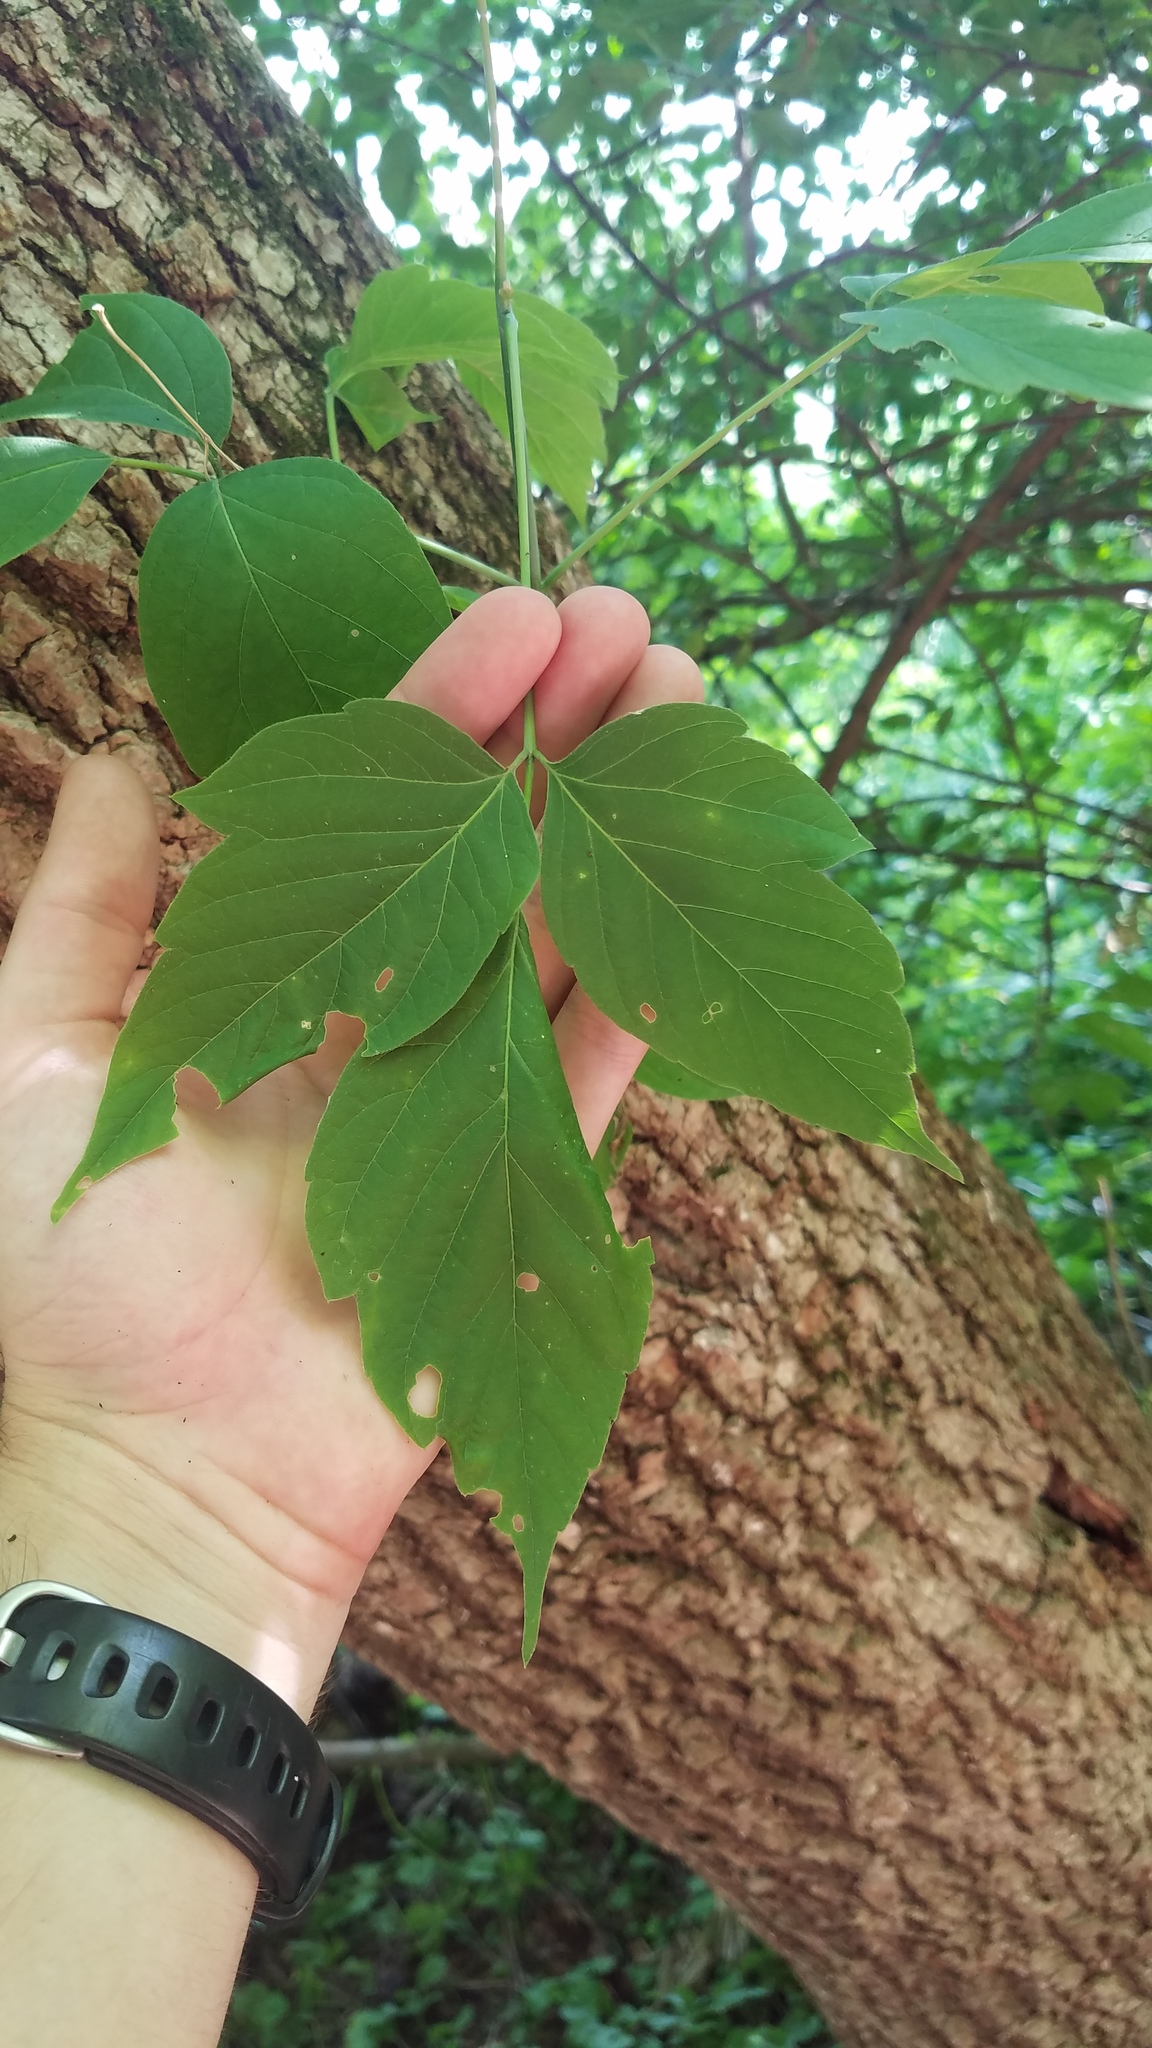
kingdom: Plantae
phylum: Tracheophyta
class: Magnoliopsida
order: Sapindales
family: Sapindaceae
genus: Acer
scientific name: Acer negundo
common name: Ashleaf maple
